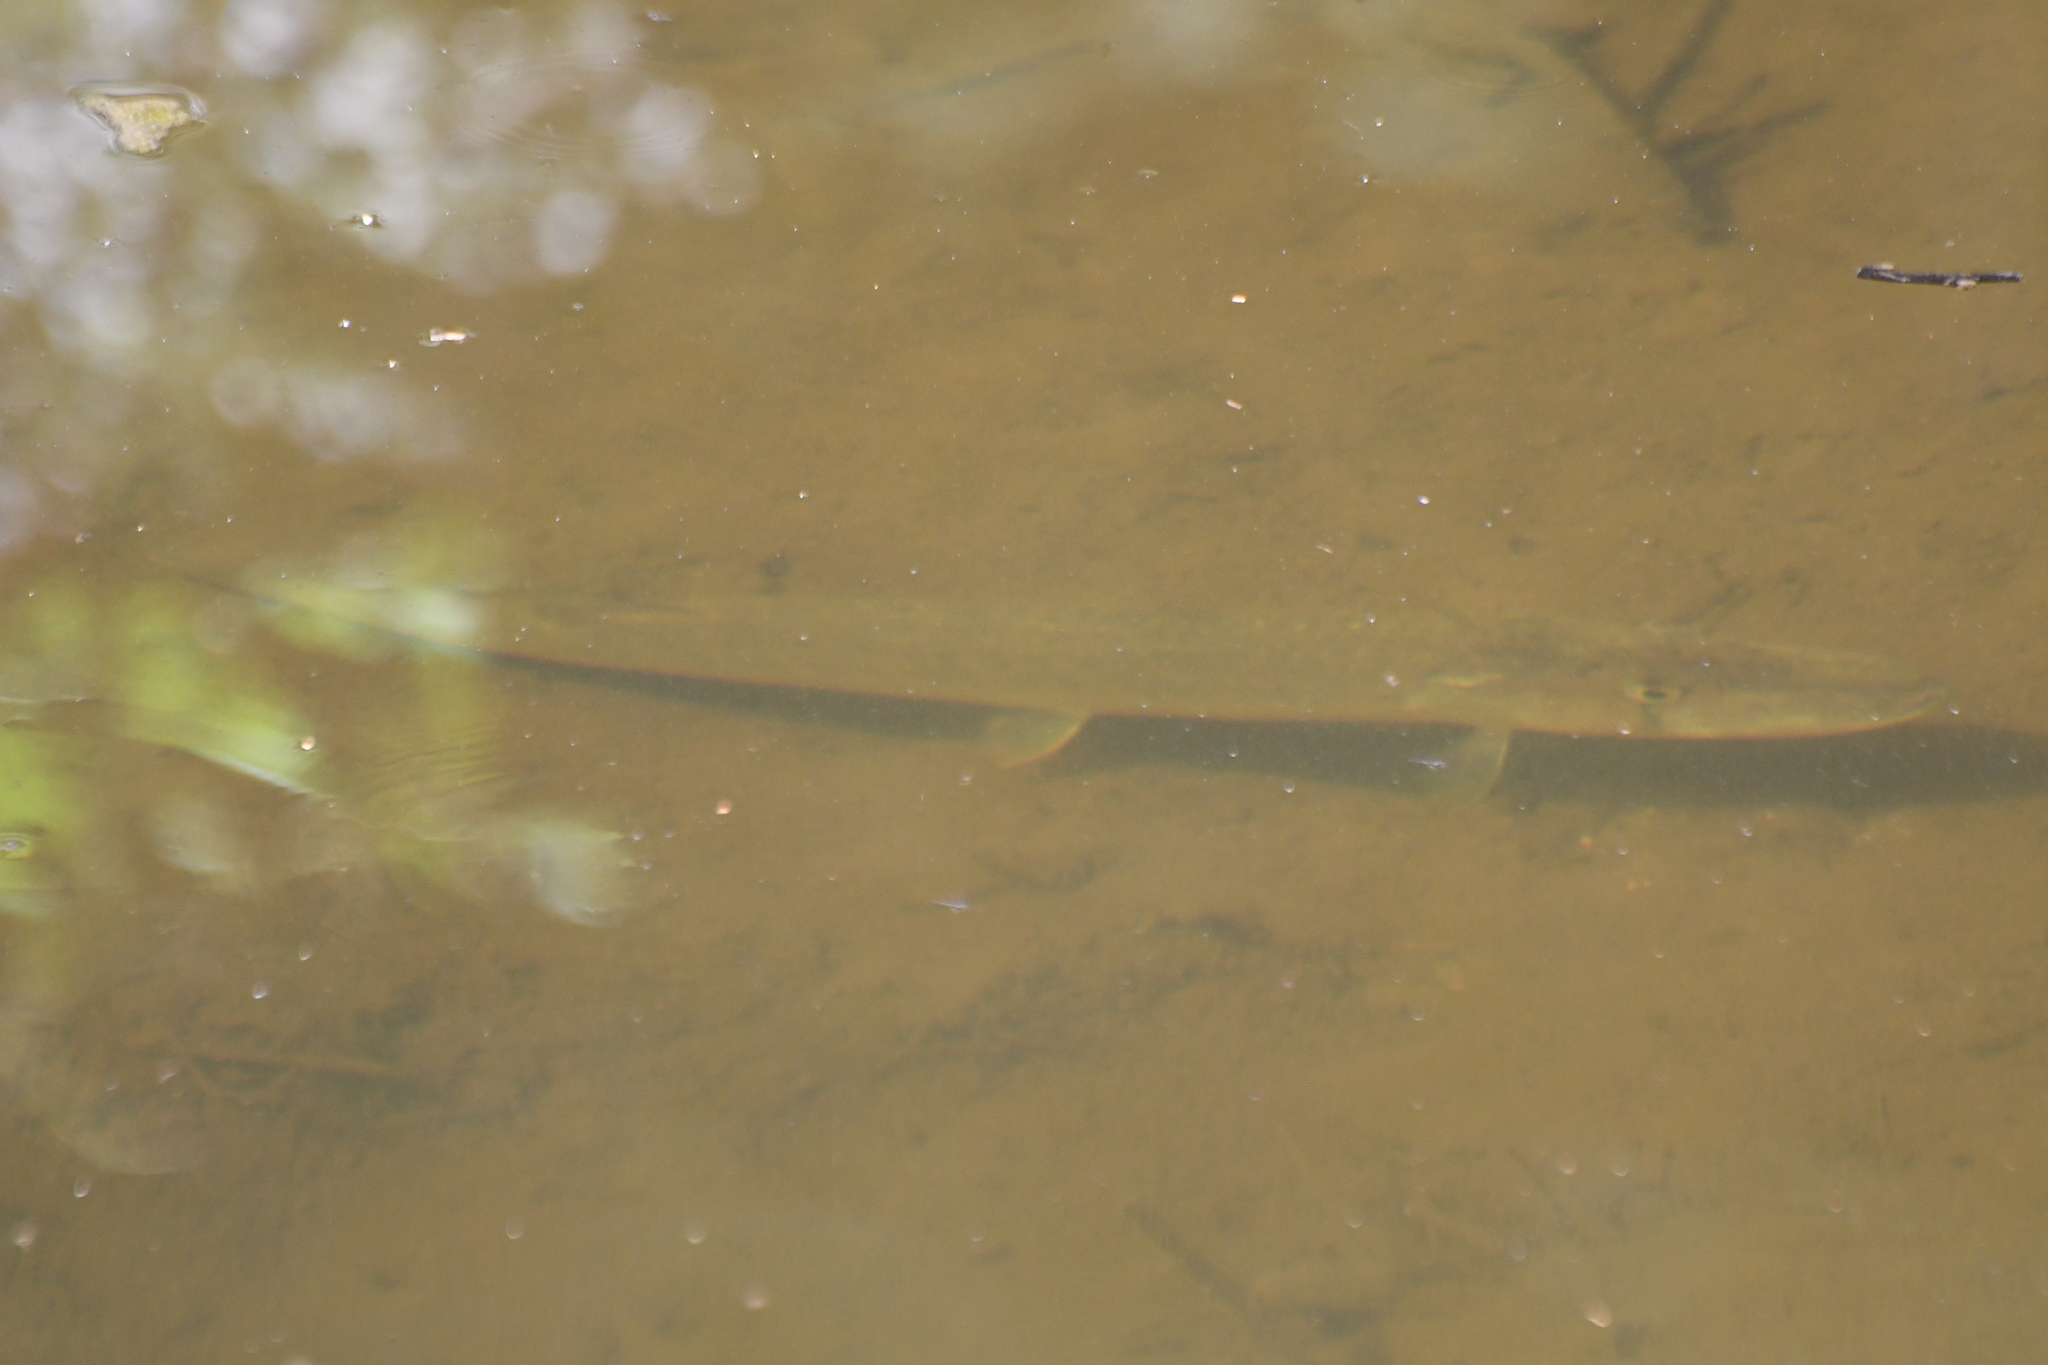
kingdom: Animalia
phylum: Chordata
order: Esociformes
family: Esocidae
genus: Esox
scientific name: Esox niger
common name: Chain pickerel
